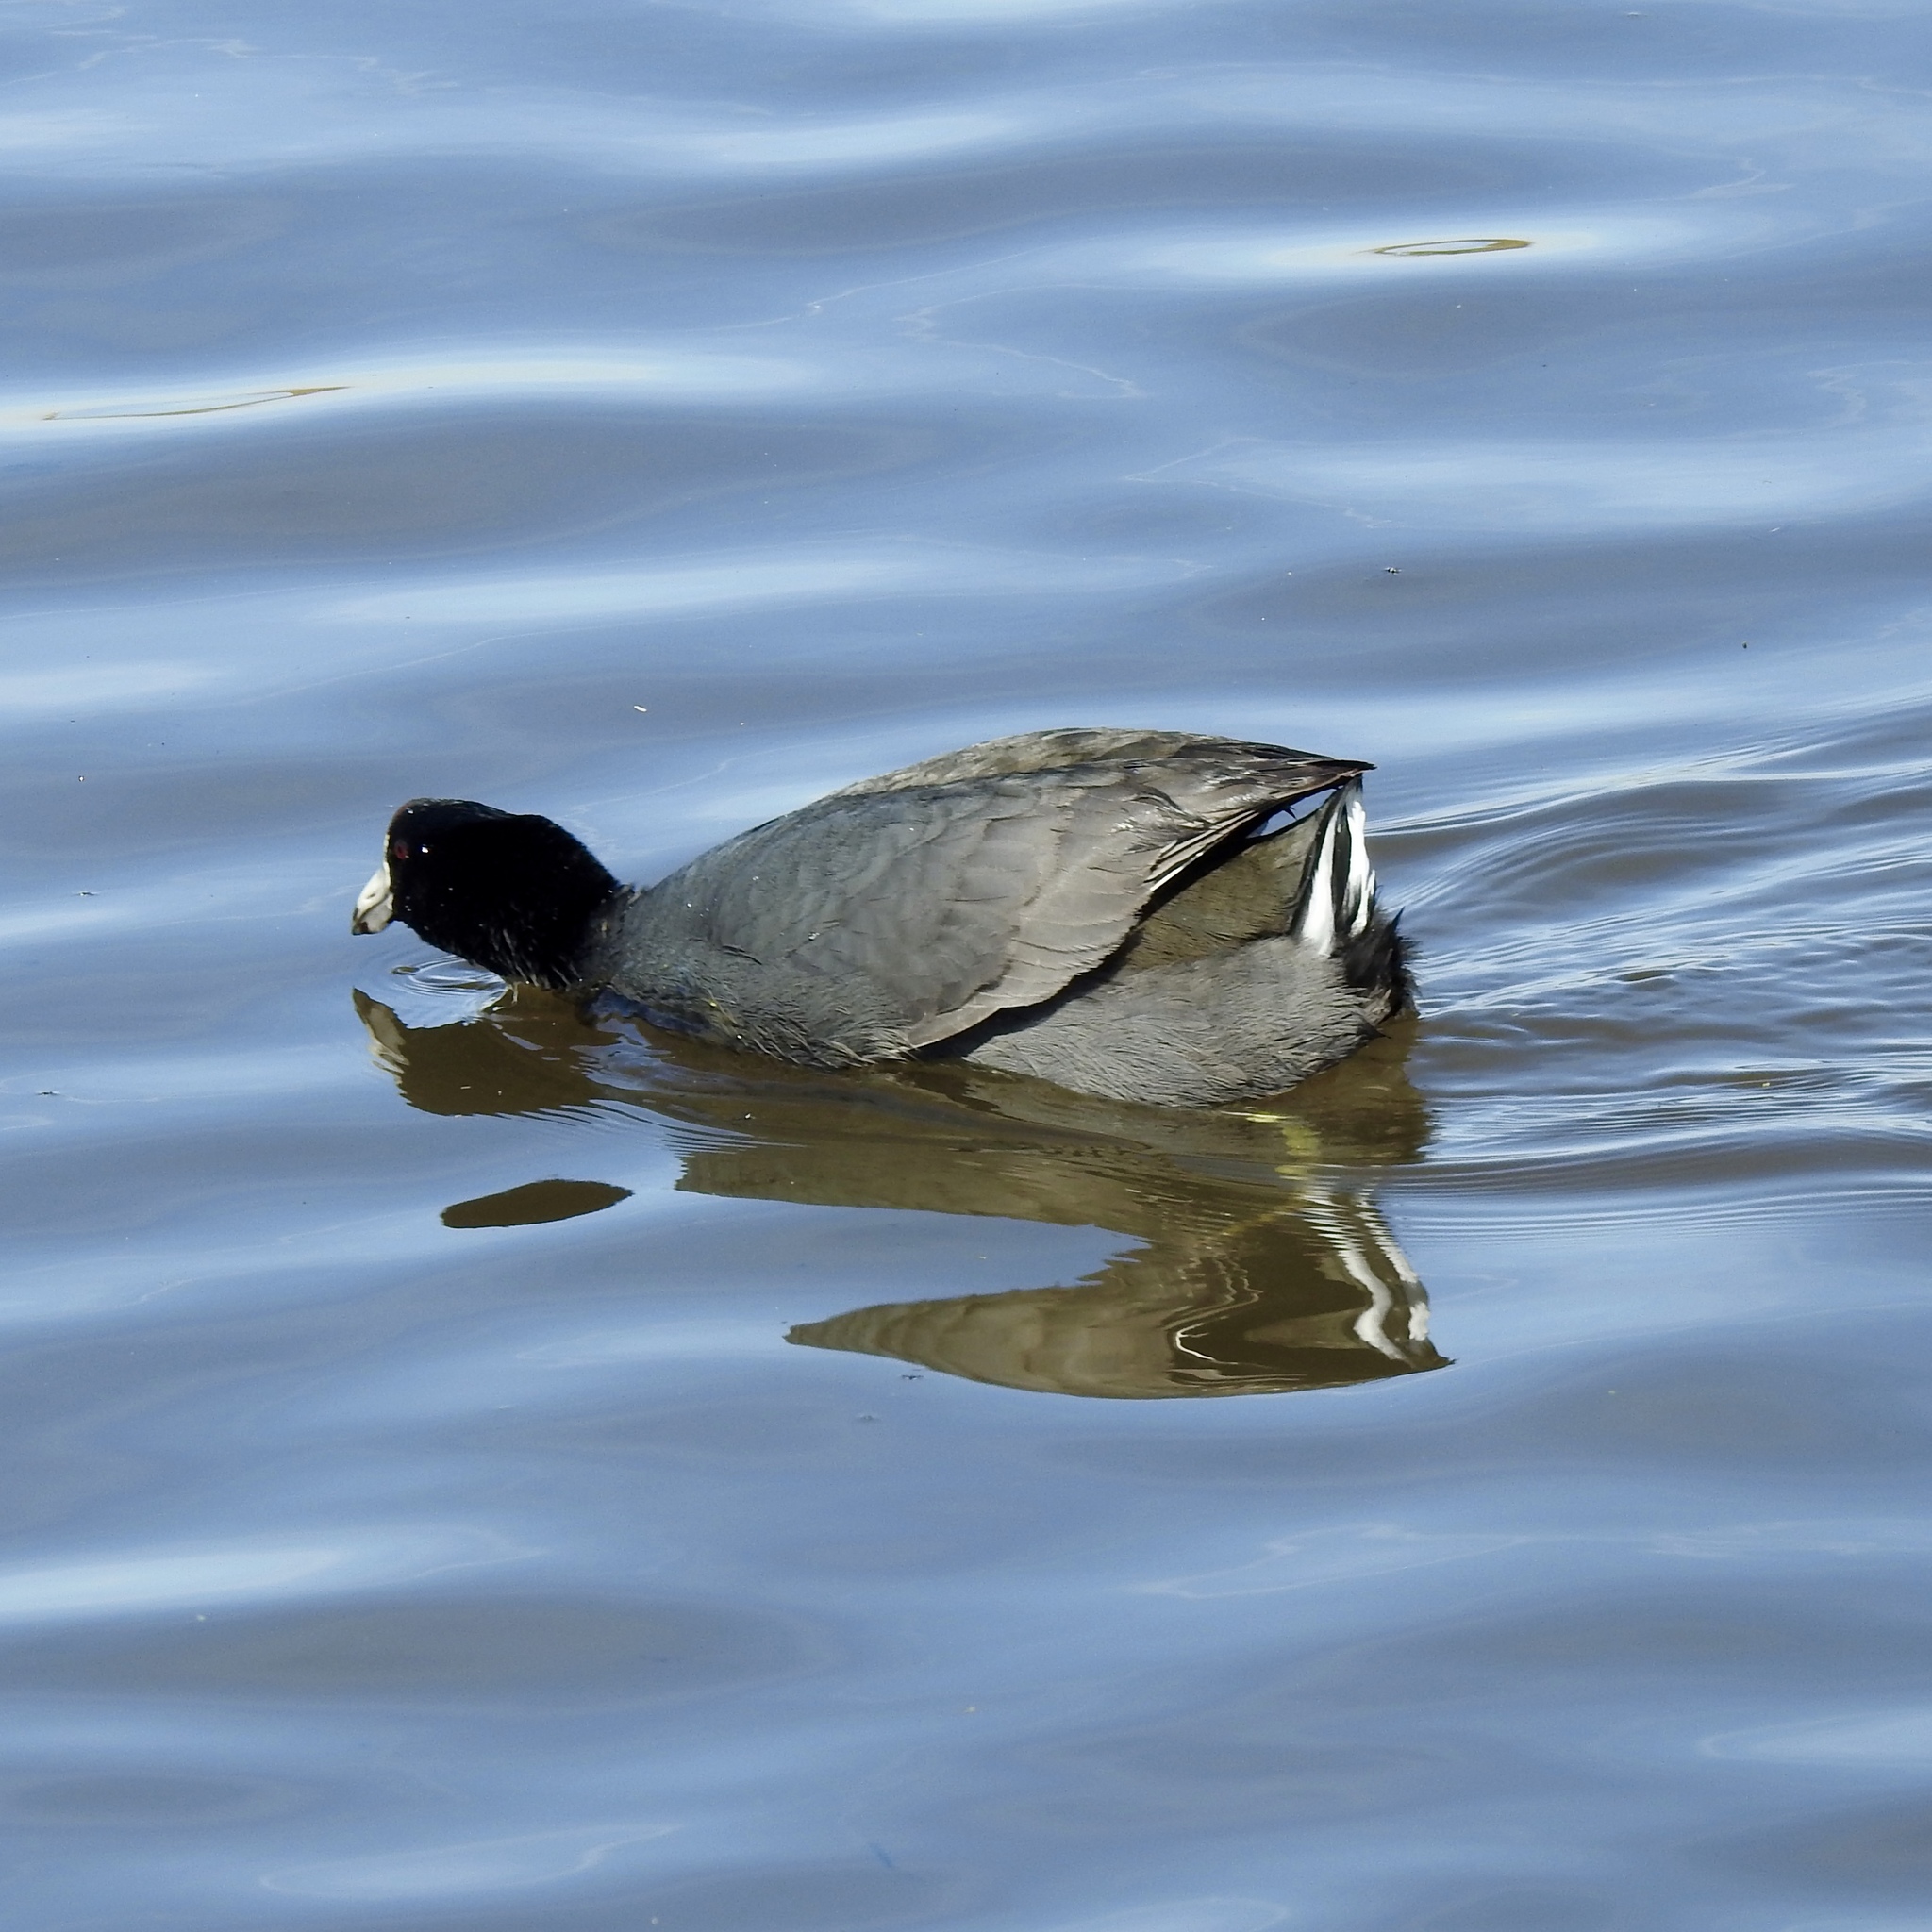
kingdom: Animalia
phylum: Chordata
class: Aves
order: Gruiformes
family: Rallidae
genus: Fulica
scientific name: Fulica americana
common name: American coot
